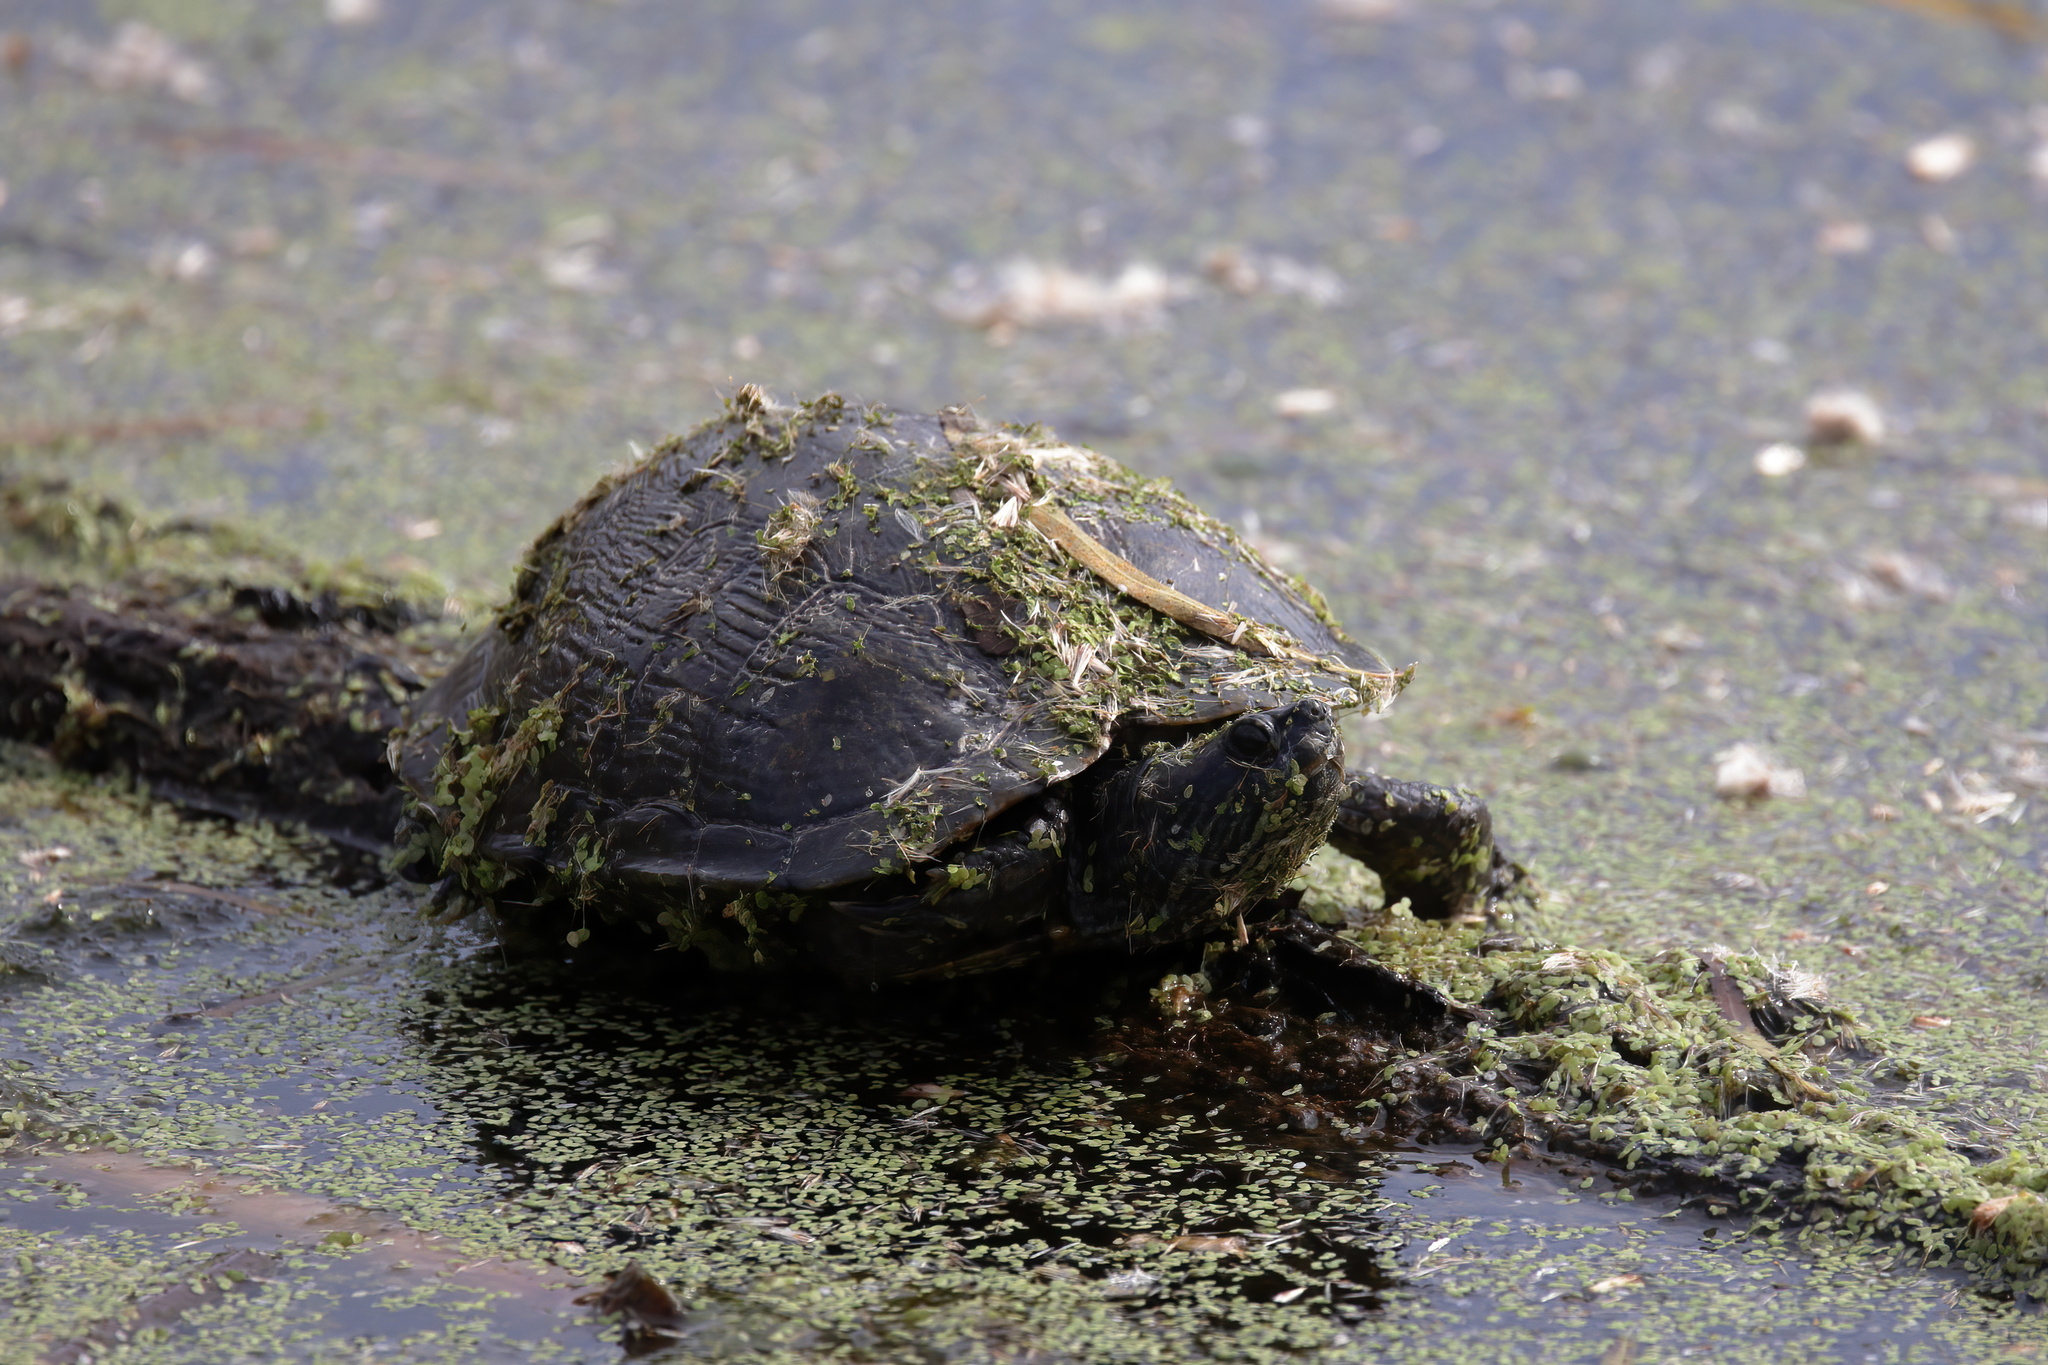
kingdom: Animalia
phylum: Chordata
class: Testudines
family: Emydidae
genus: Trachemys
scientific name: Trachemys scripta
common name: Slider
